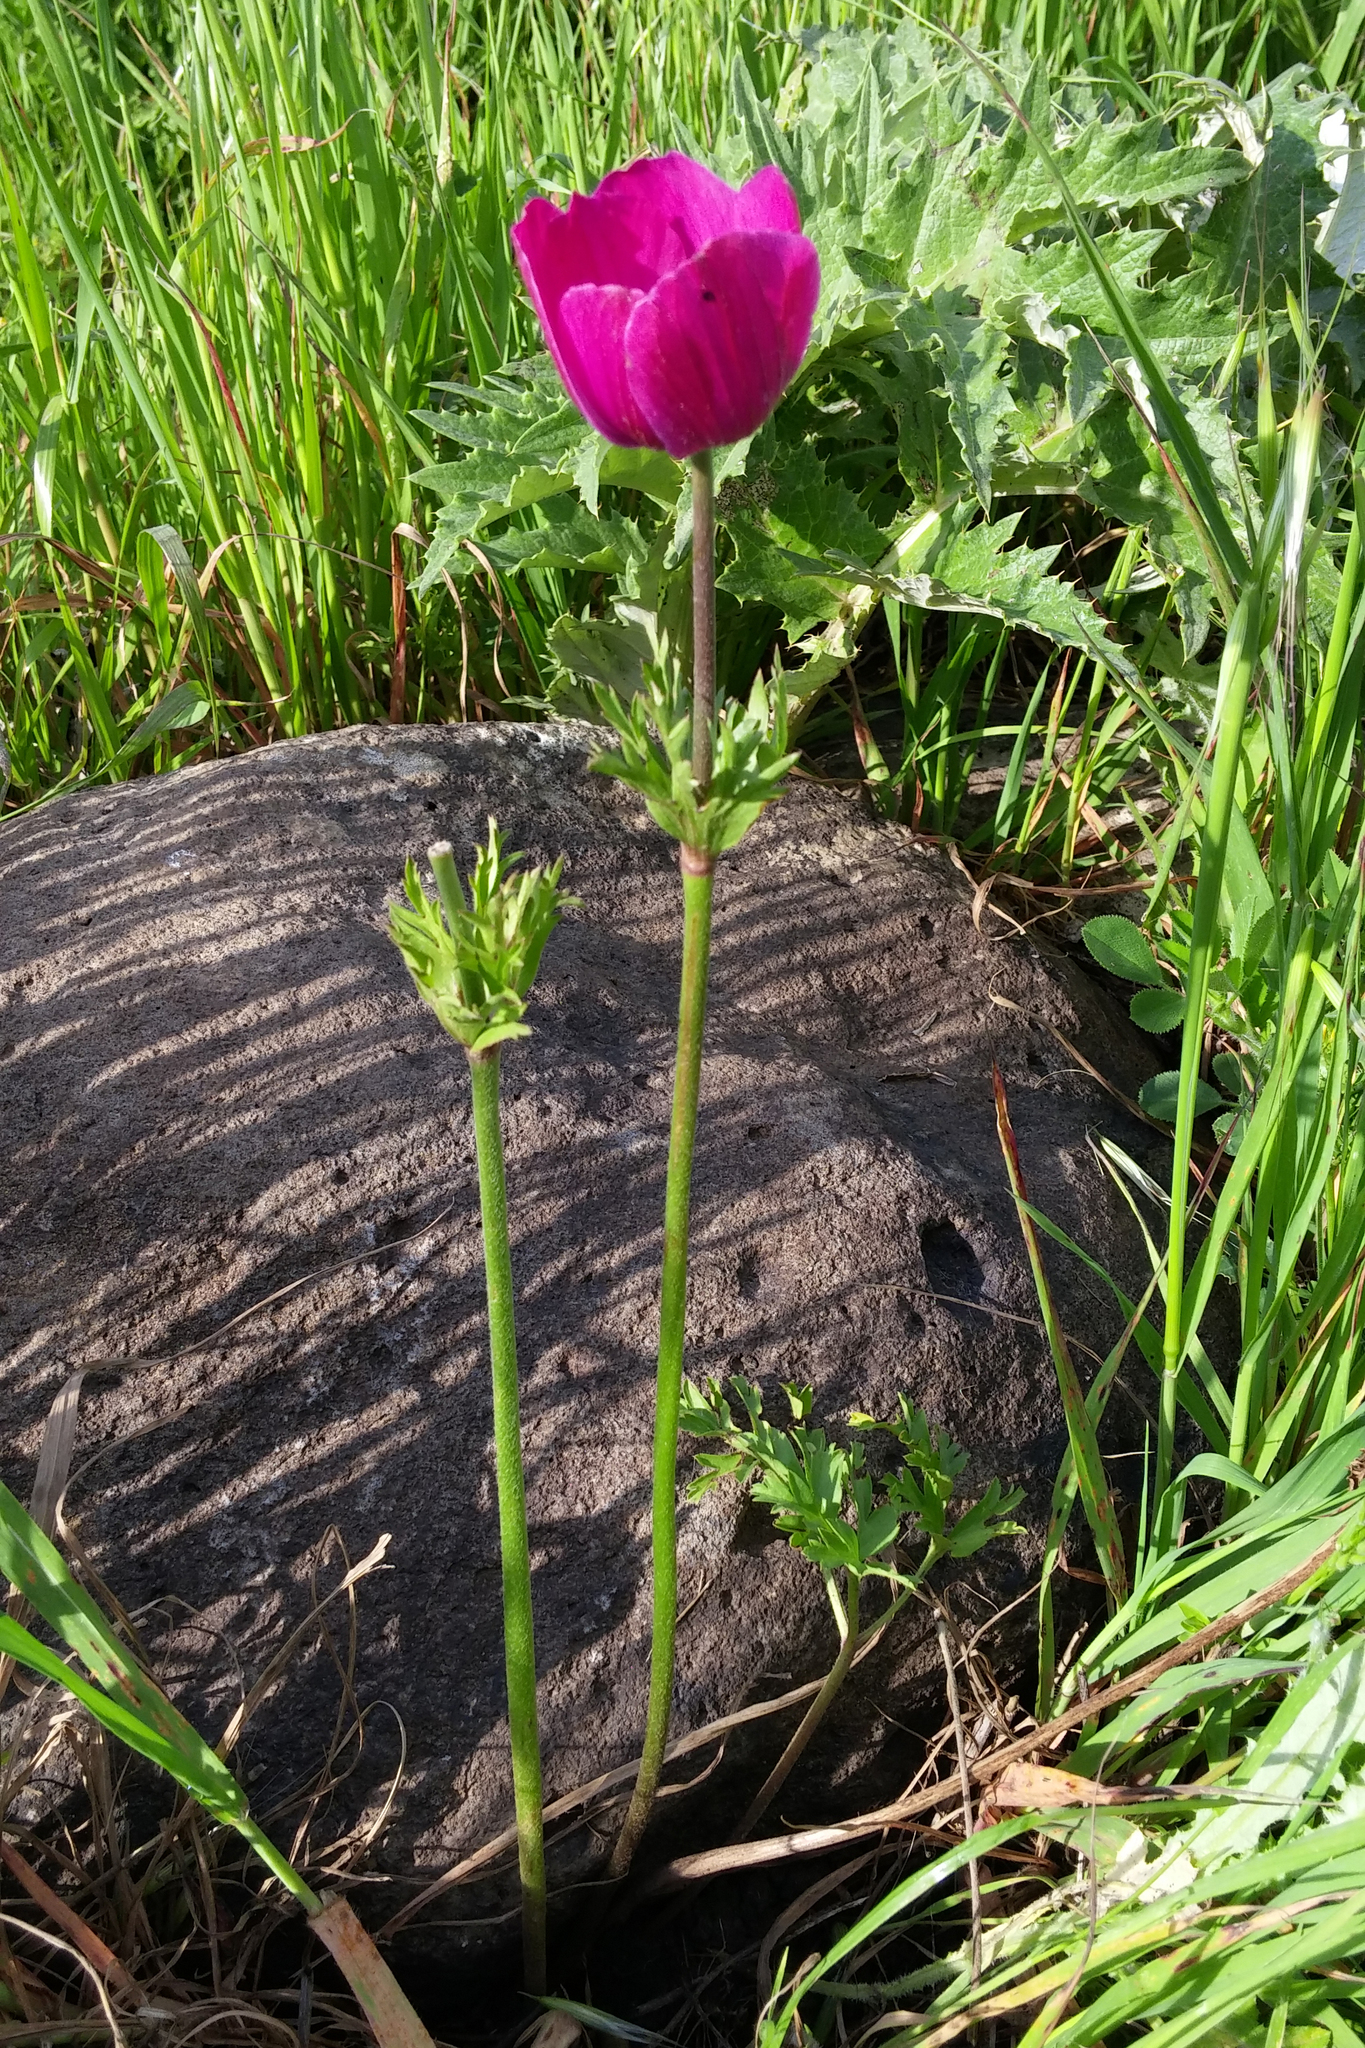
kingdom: Plantae
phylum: Tracheophyta
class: Magnoliopsida
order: Ranunculales
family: Ranunculaceae
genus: Anemone
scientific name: Anemone coronaria
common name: Poppy anemone
